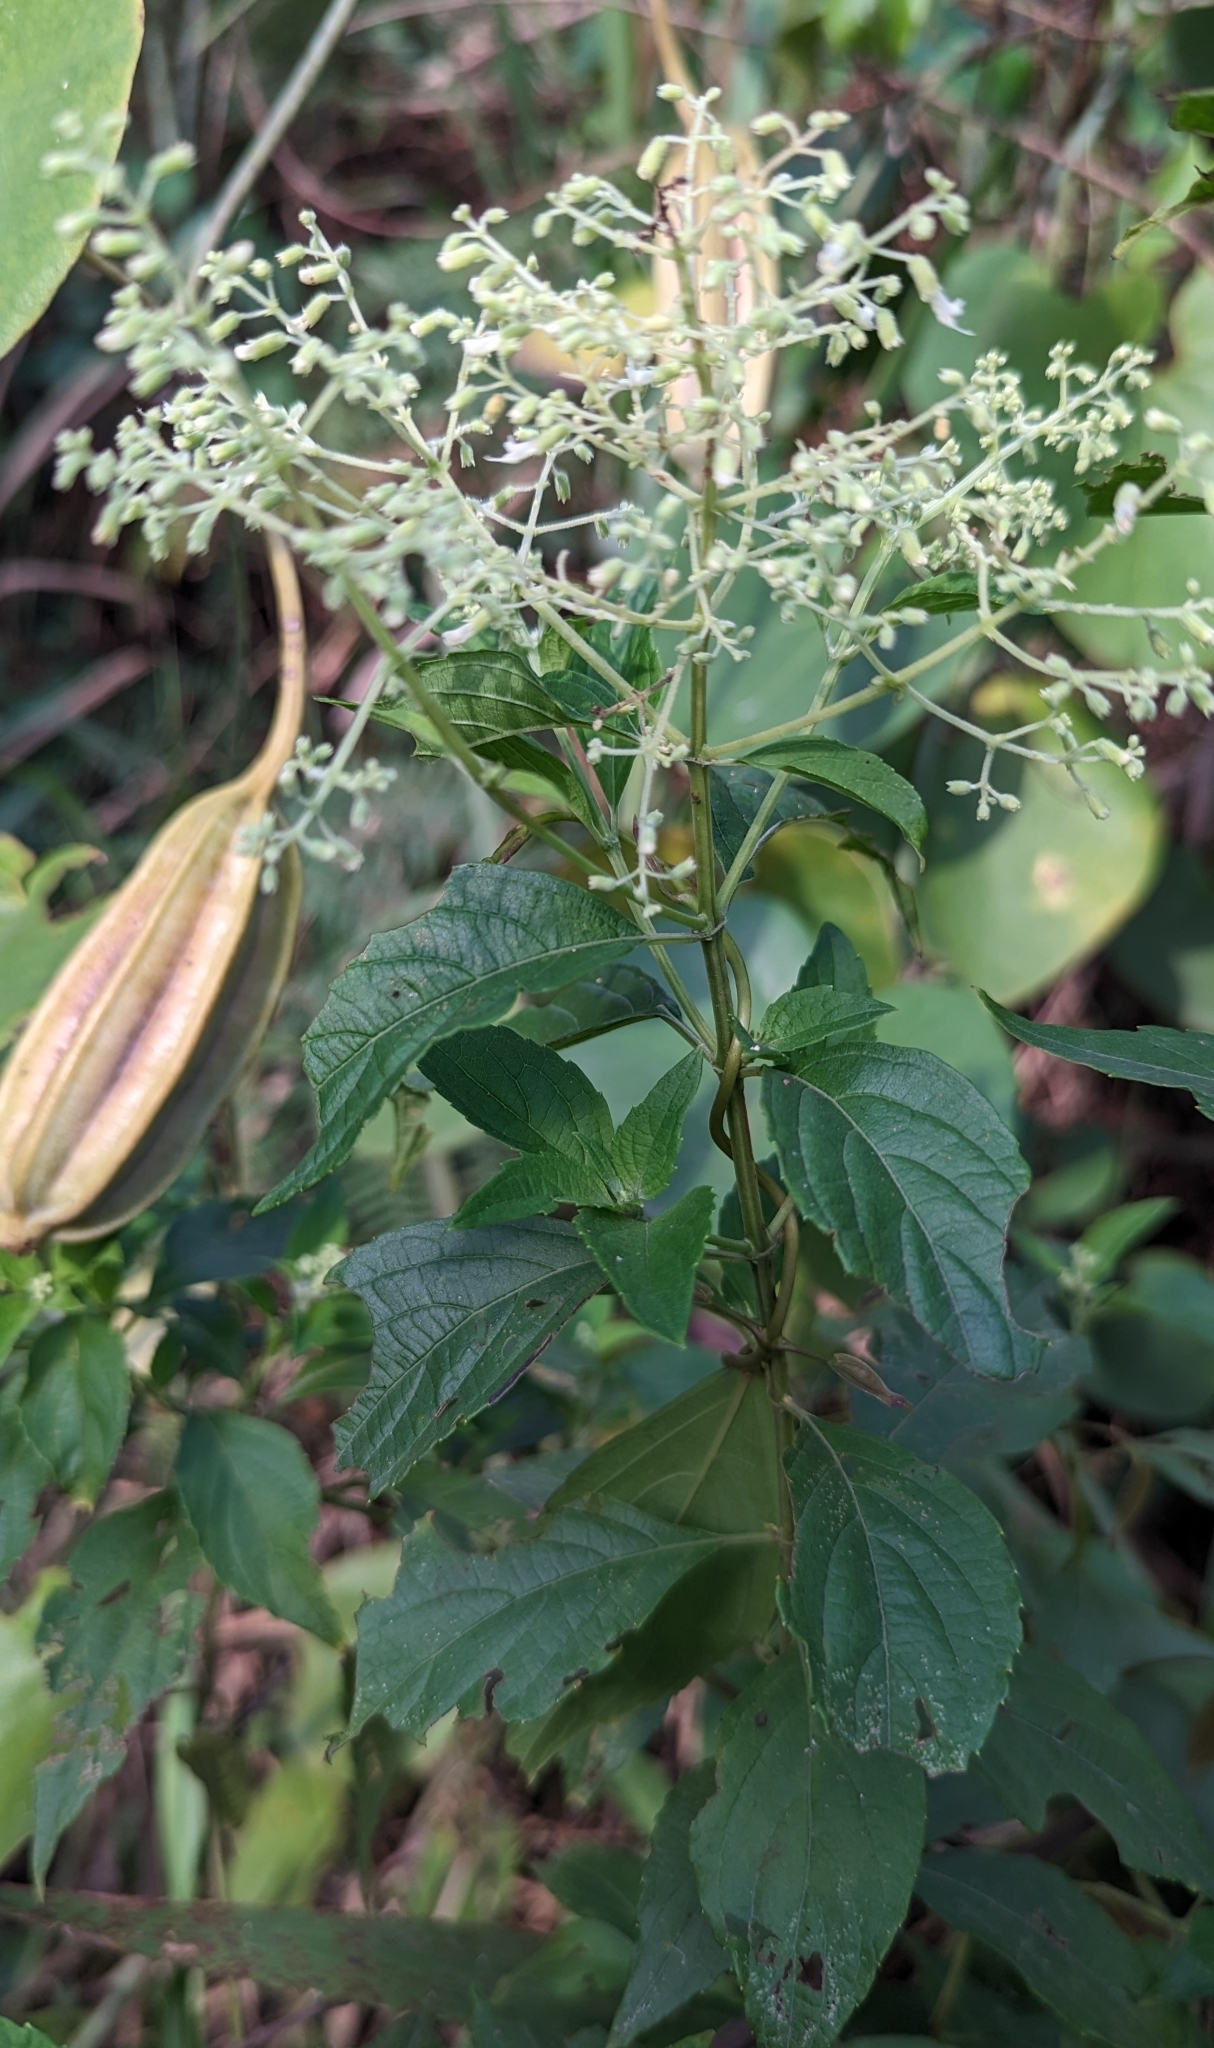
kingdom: Plantae
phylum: Tracheophyta
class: Magnoliopsida
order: Lamiales
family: Lamiaceae
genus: Hoslundia
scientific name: Hoslundia opposita
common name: Kamyuye
